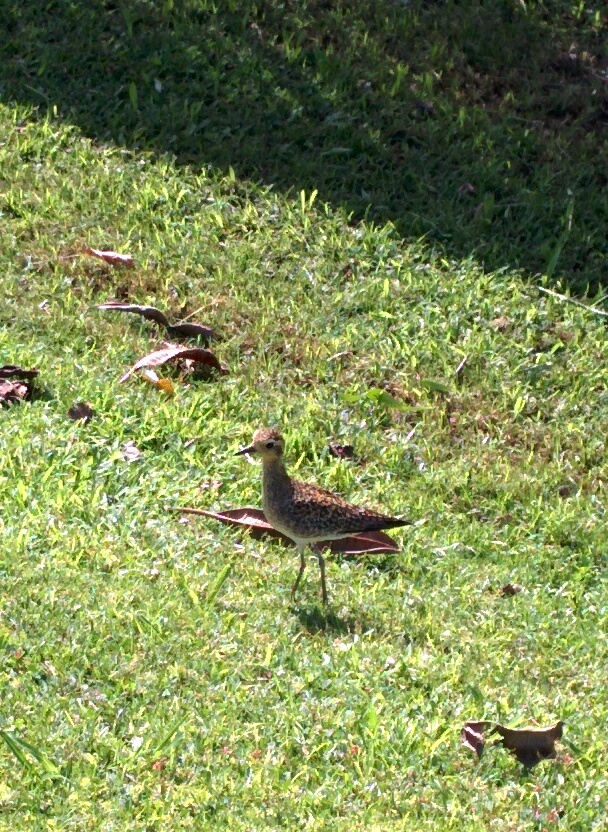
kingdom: Animalia
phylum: Chordata
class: Aves
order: Charadriiformes
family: Charadriidae
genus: Pluvialis
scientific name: Pluvialis fulva
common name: Pacific golden plover
